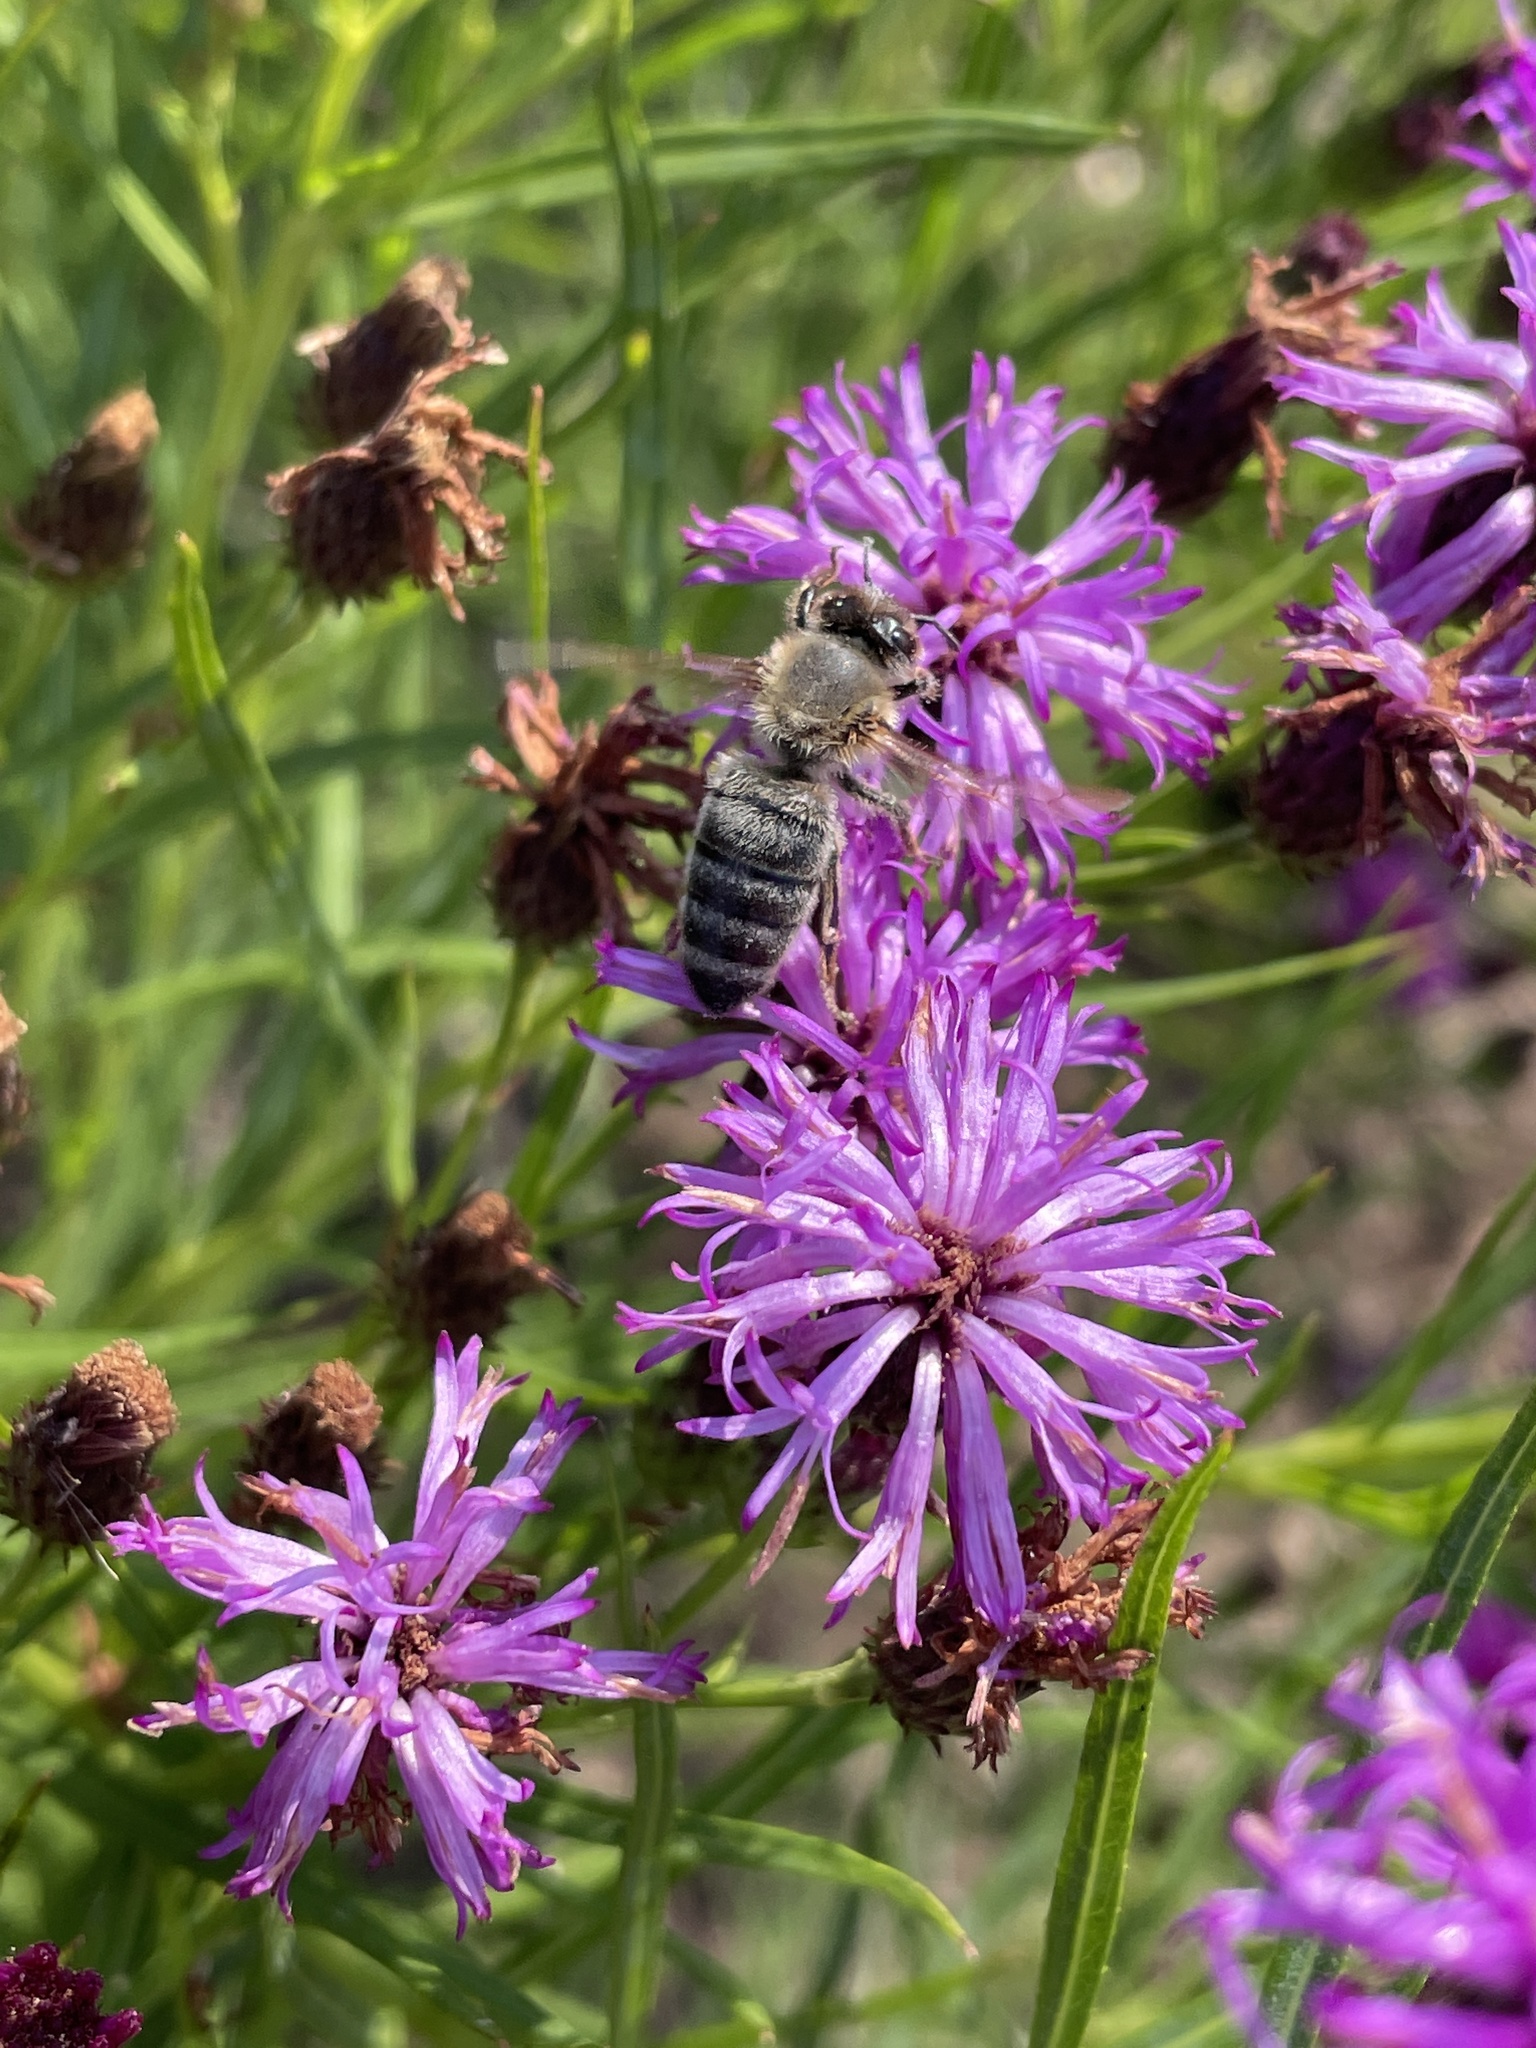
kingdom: Animalia
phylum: Arthropoda
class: Insecta
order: Hymenoptera
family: Apidae
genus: Apis
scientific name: Apis mellifera
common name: Honey bee
